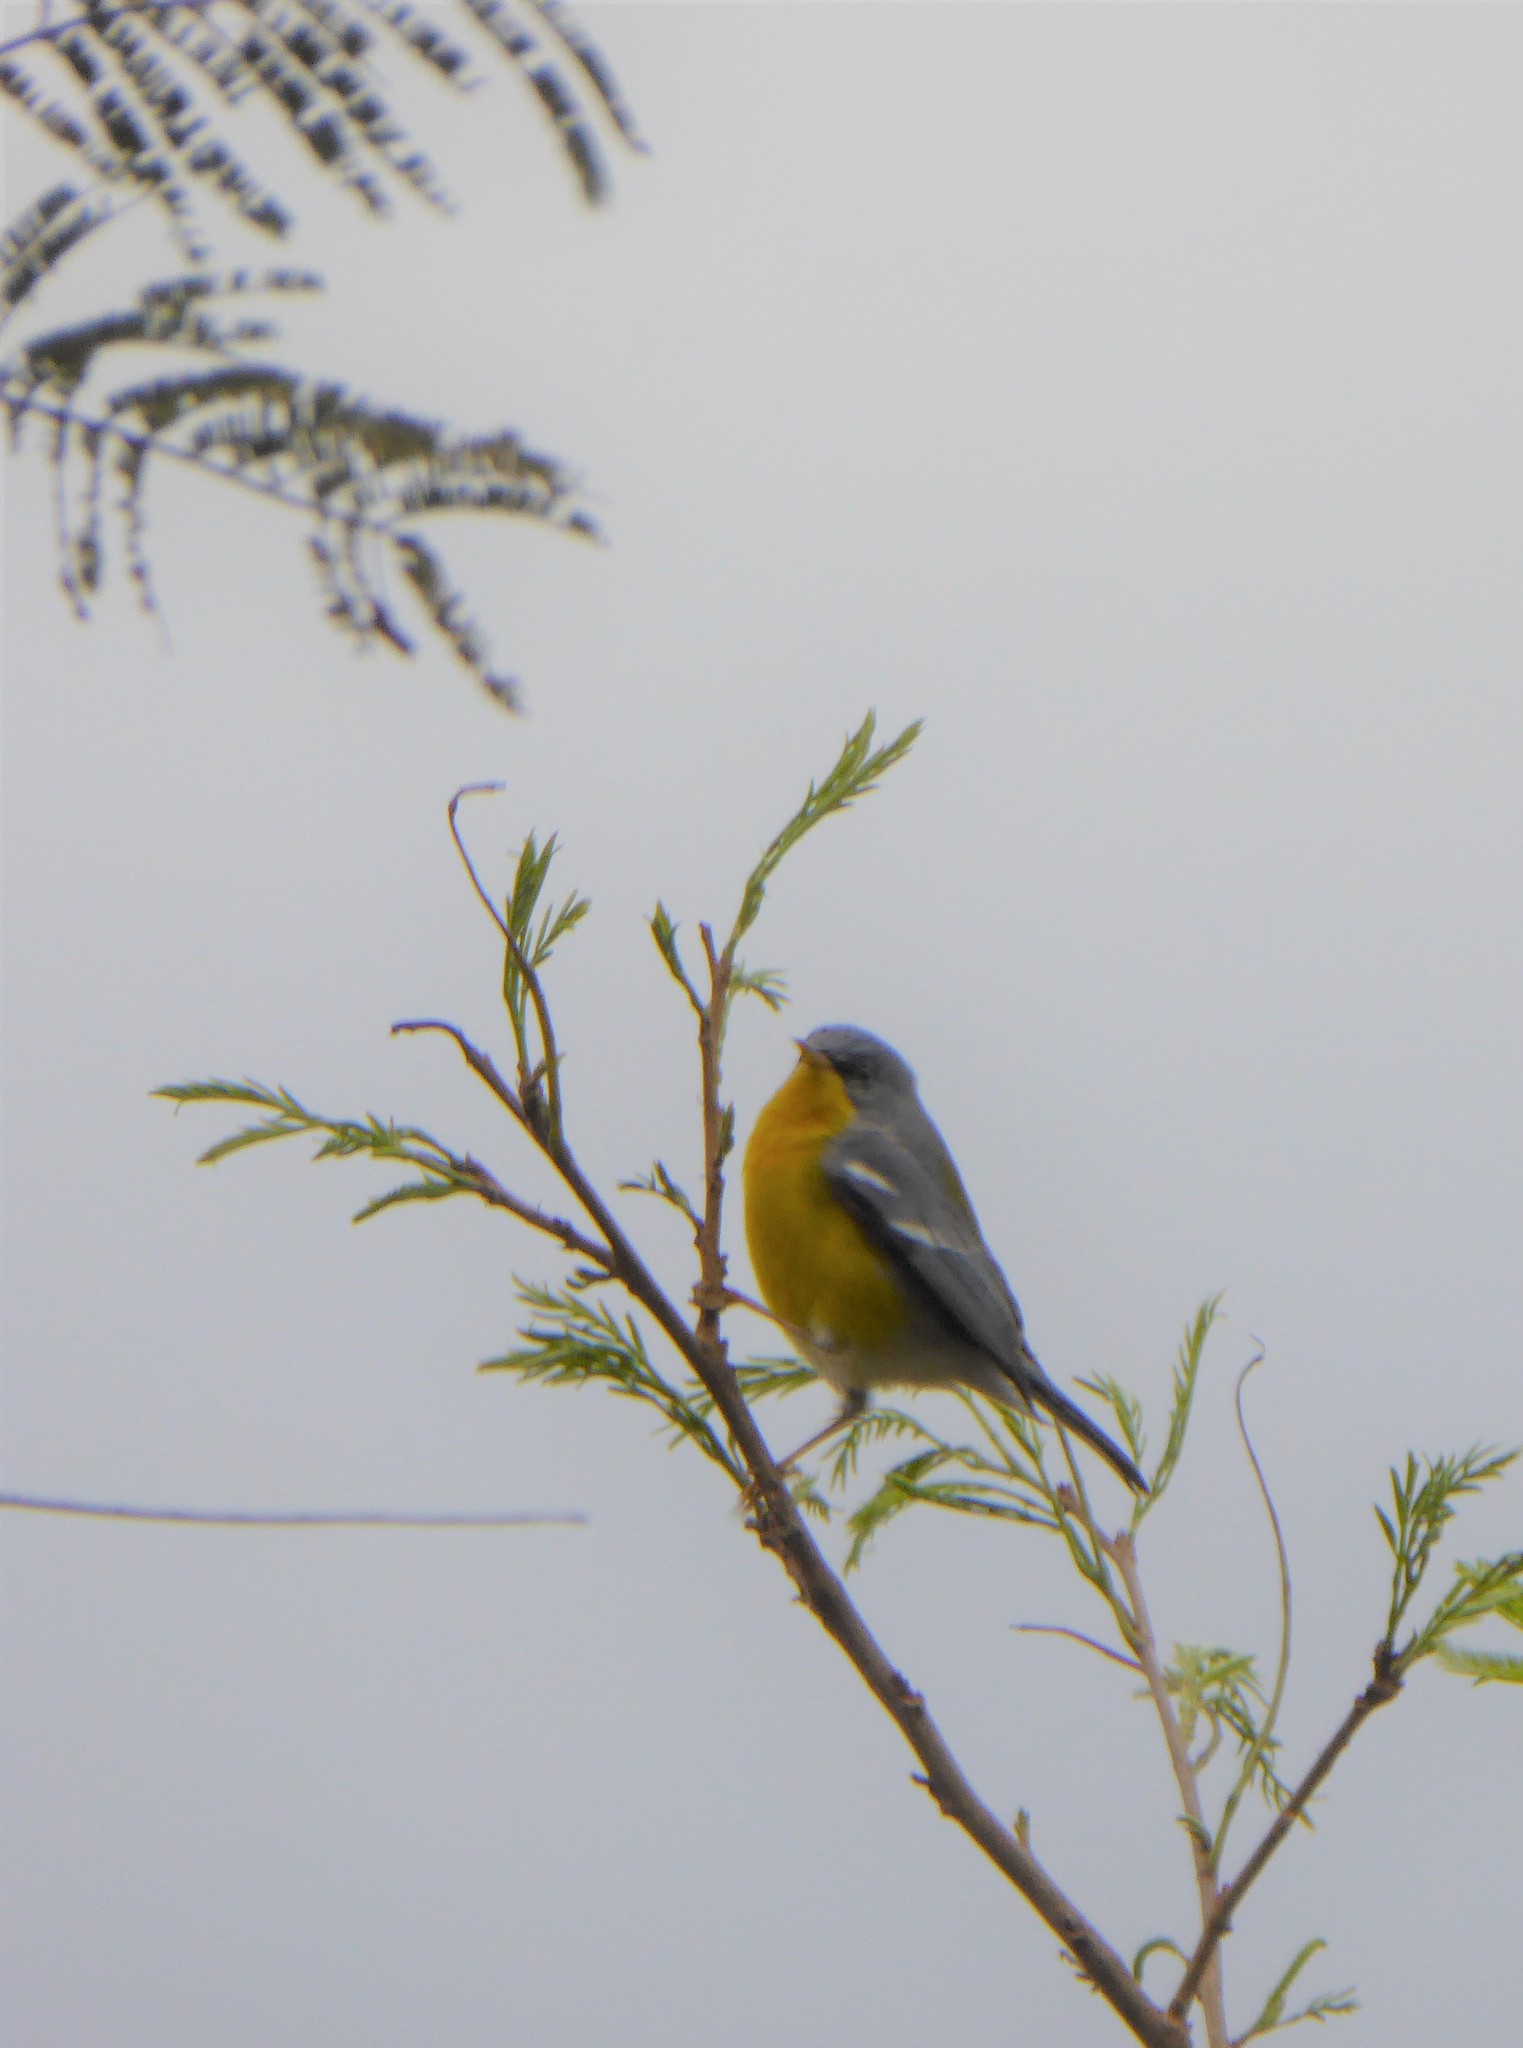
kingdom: Animalia
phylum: Chordata
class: Aves
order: Passeriformes
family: Parulidae
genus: Setophaga
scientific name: Setophaga pitiayumi
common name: Tropical parula
